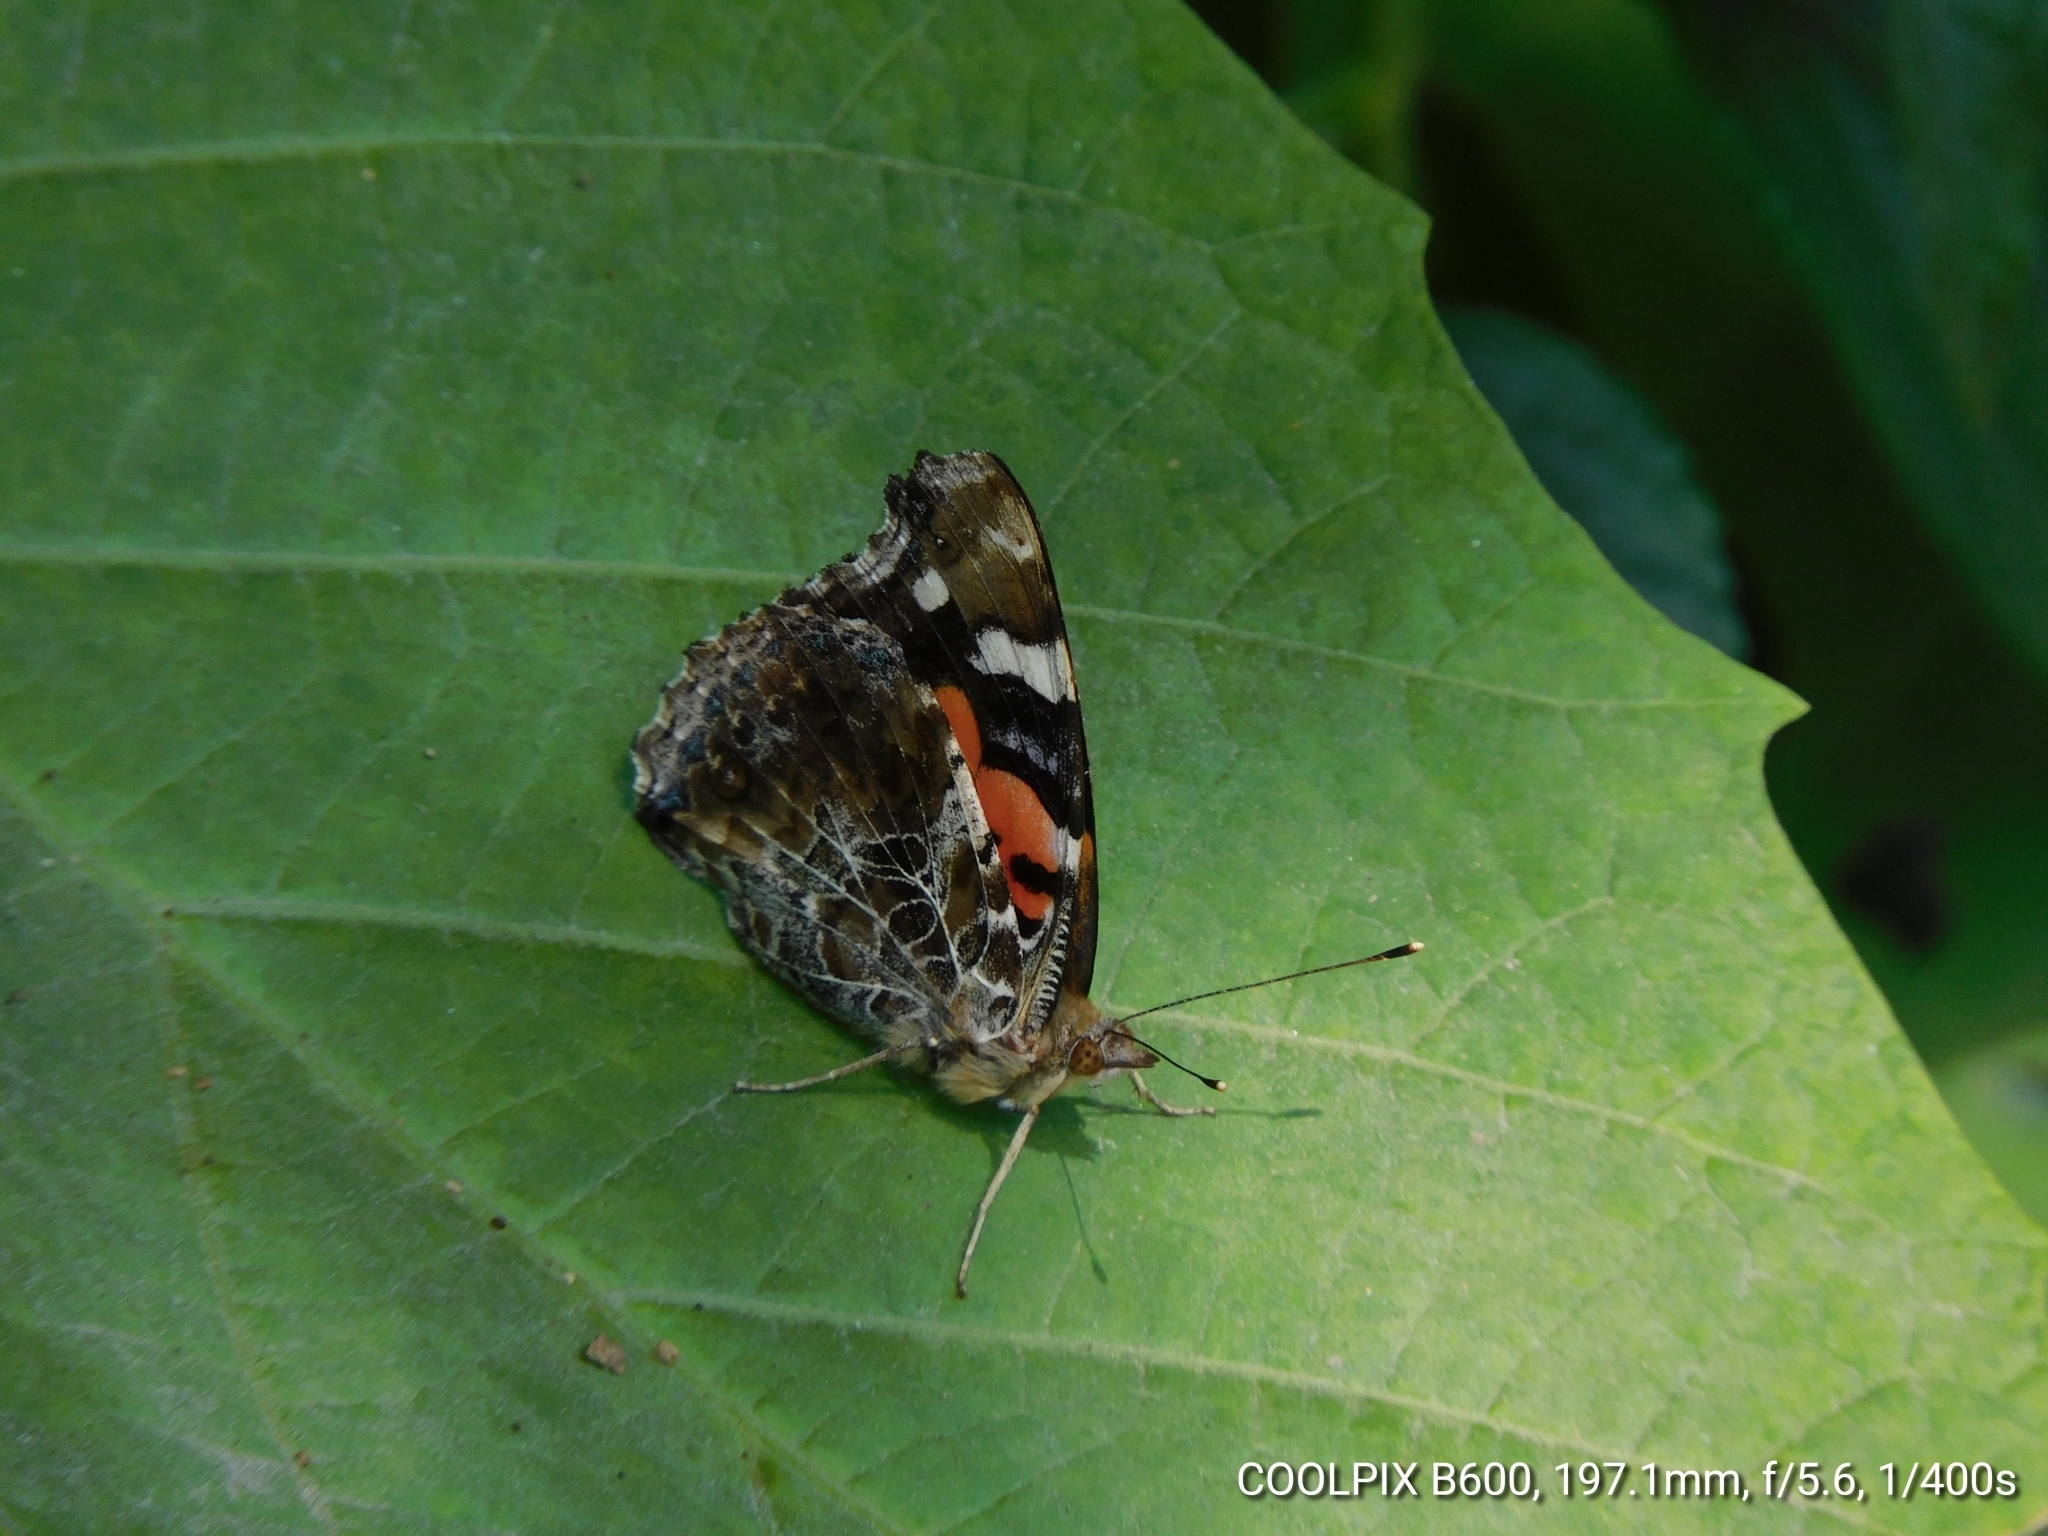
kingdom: Animalia
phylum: Arthropoda
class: Insecta
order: Lepidoptera
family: Nymphalidae
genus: Vanessa
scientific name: Vanessa indica
